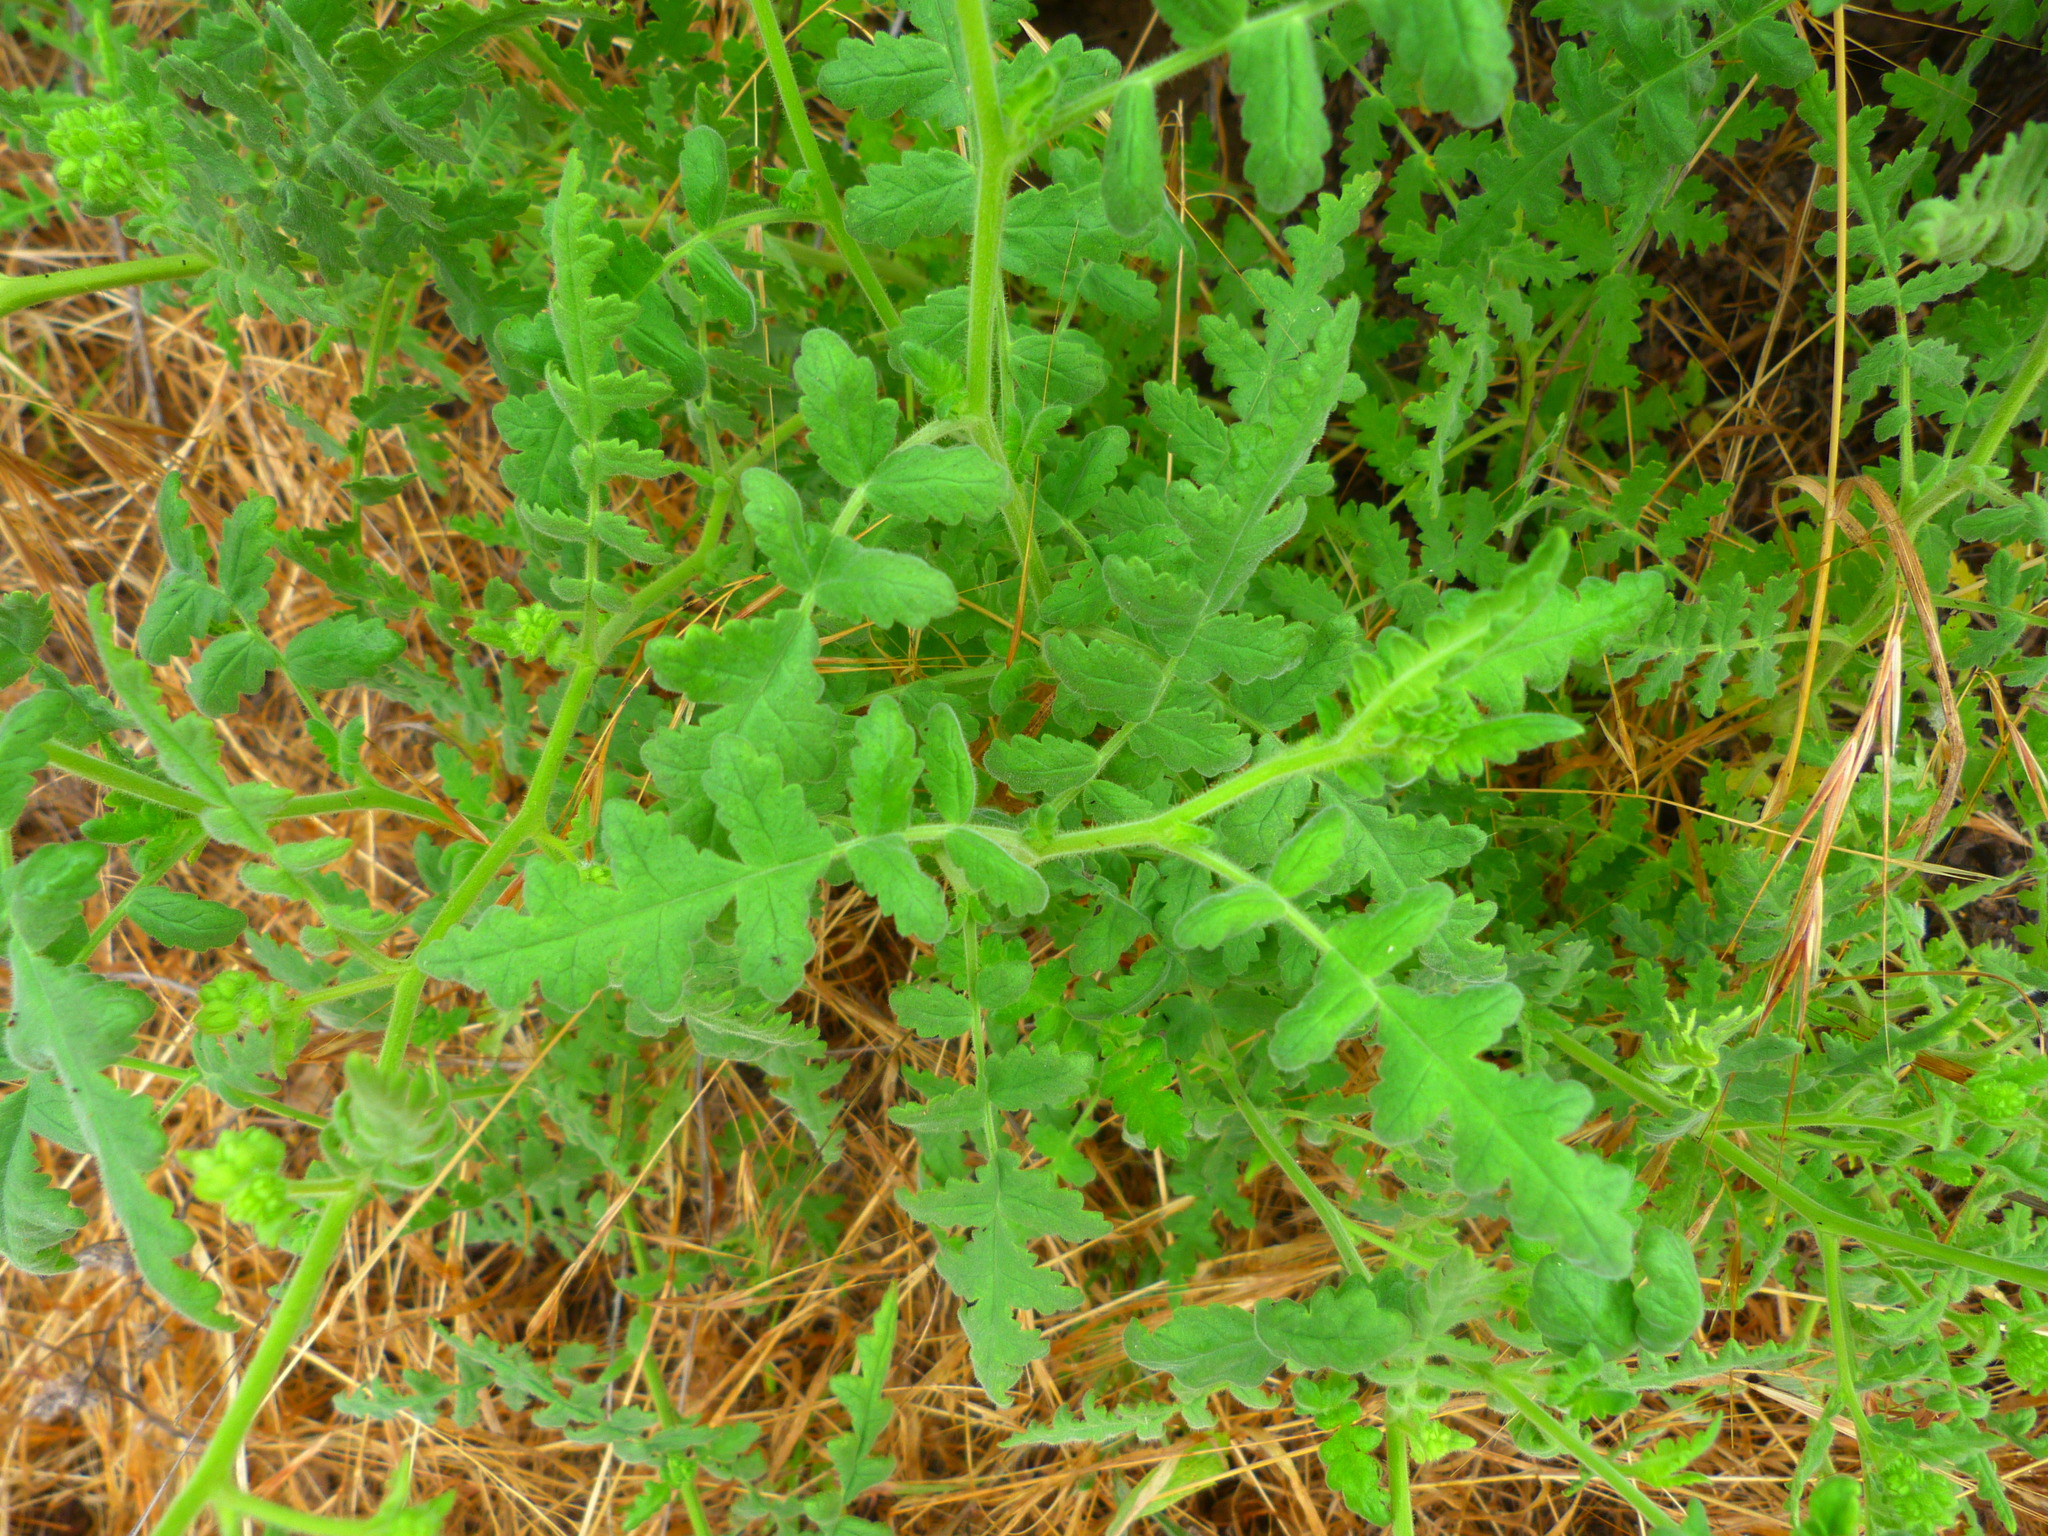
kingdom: Plantae
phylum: Tracheophyta
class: Magnoliopsida
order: Boraginales
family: Hydrophyllaceae
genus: Phacelia
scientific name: Phacelia ramosissima
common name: Branching phacelia
